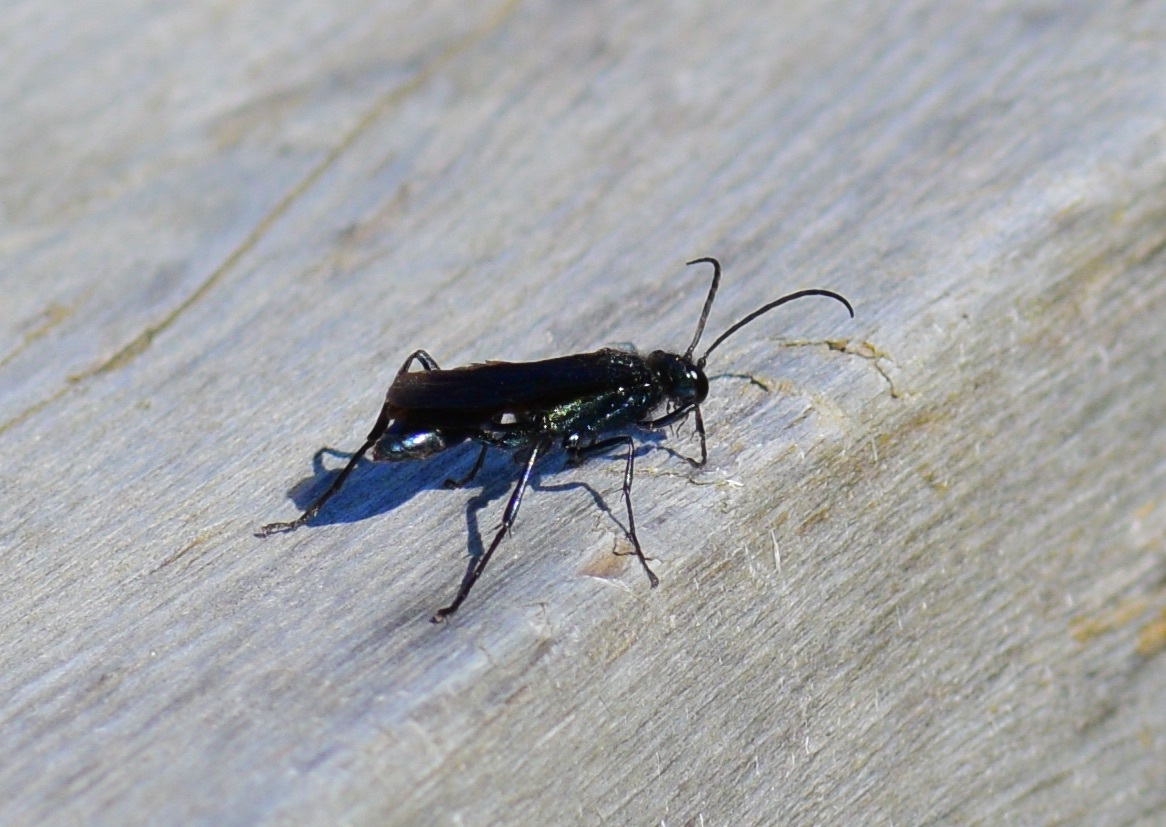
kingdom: Animalia
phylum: Arthropoda
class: Insecta
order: Hymenoptera
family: Sphecidae
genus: Chalybion
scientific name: Chalybion californicum
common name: Mud dauber
